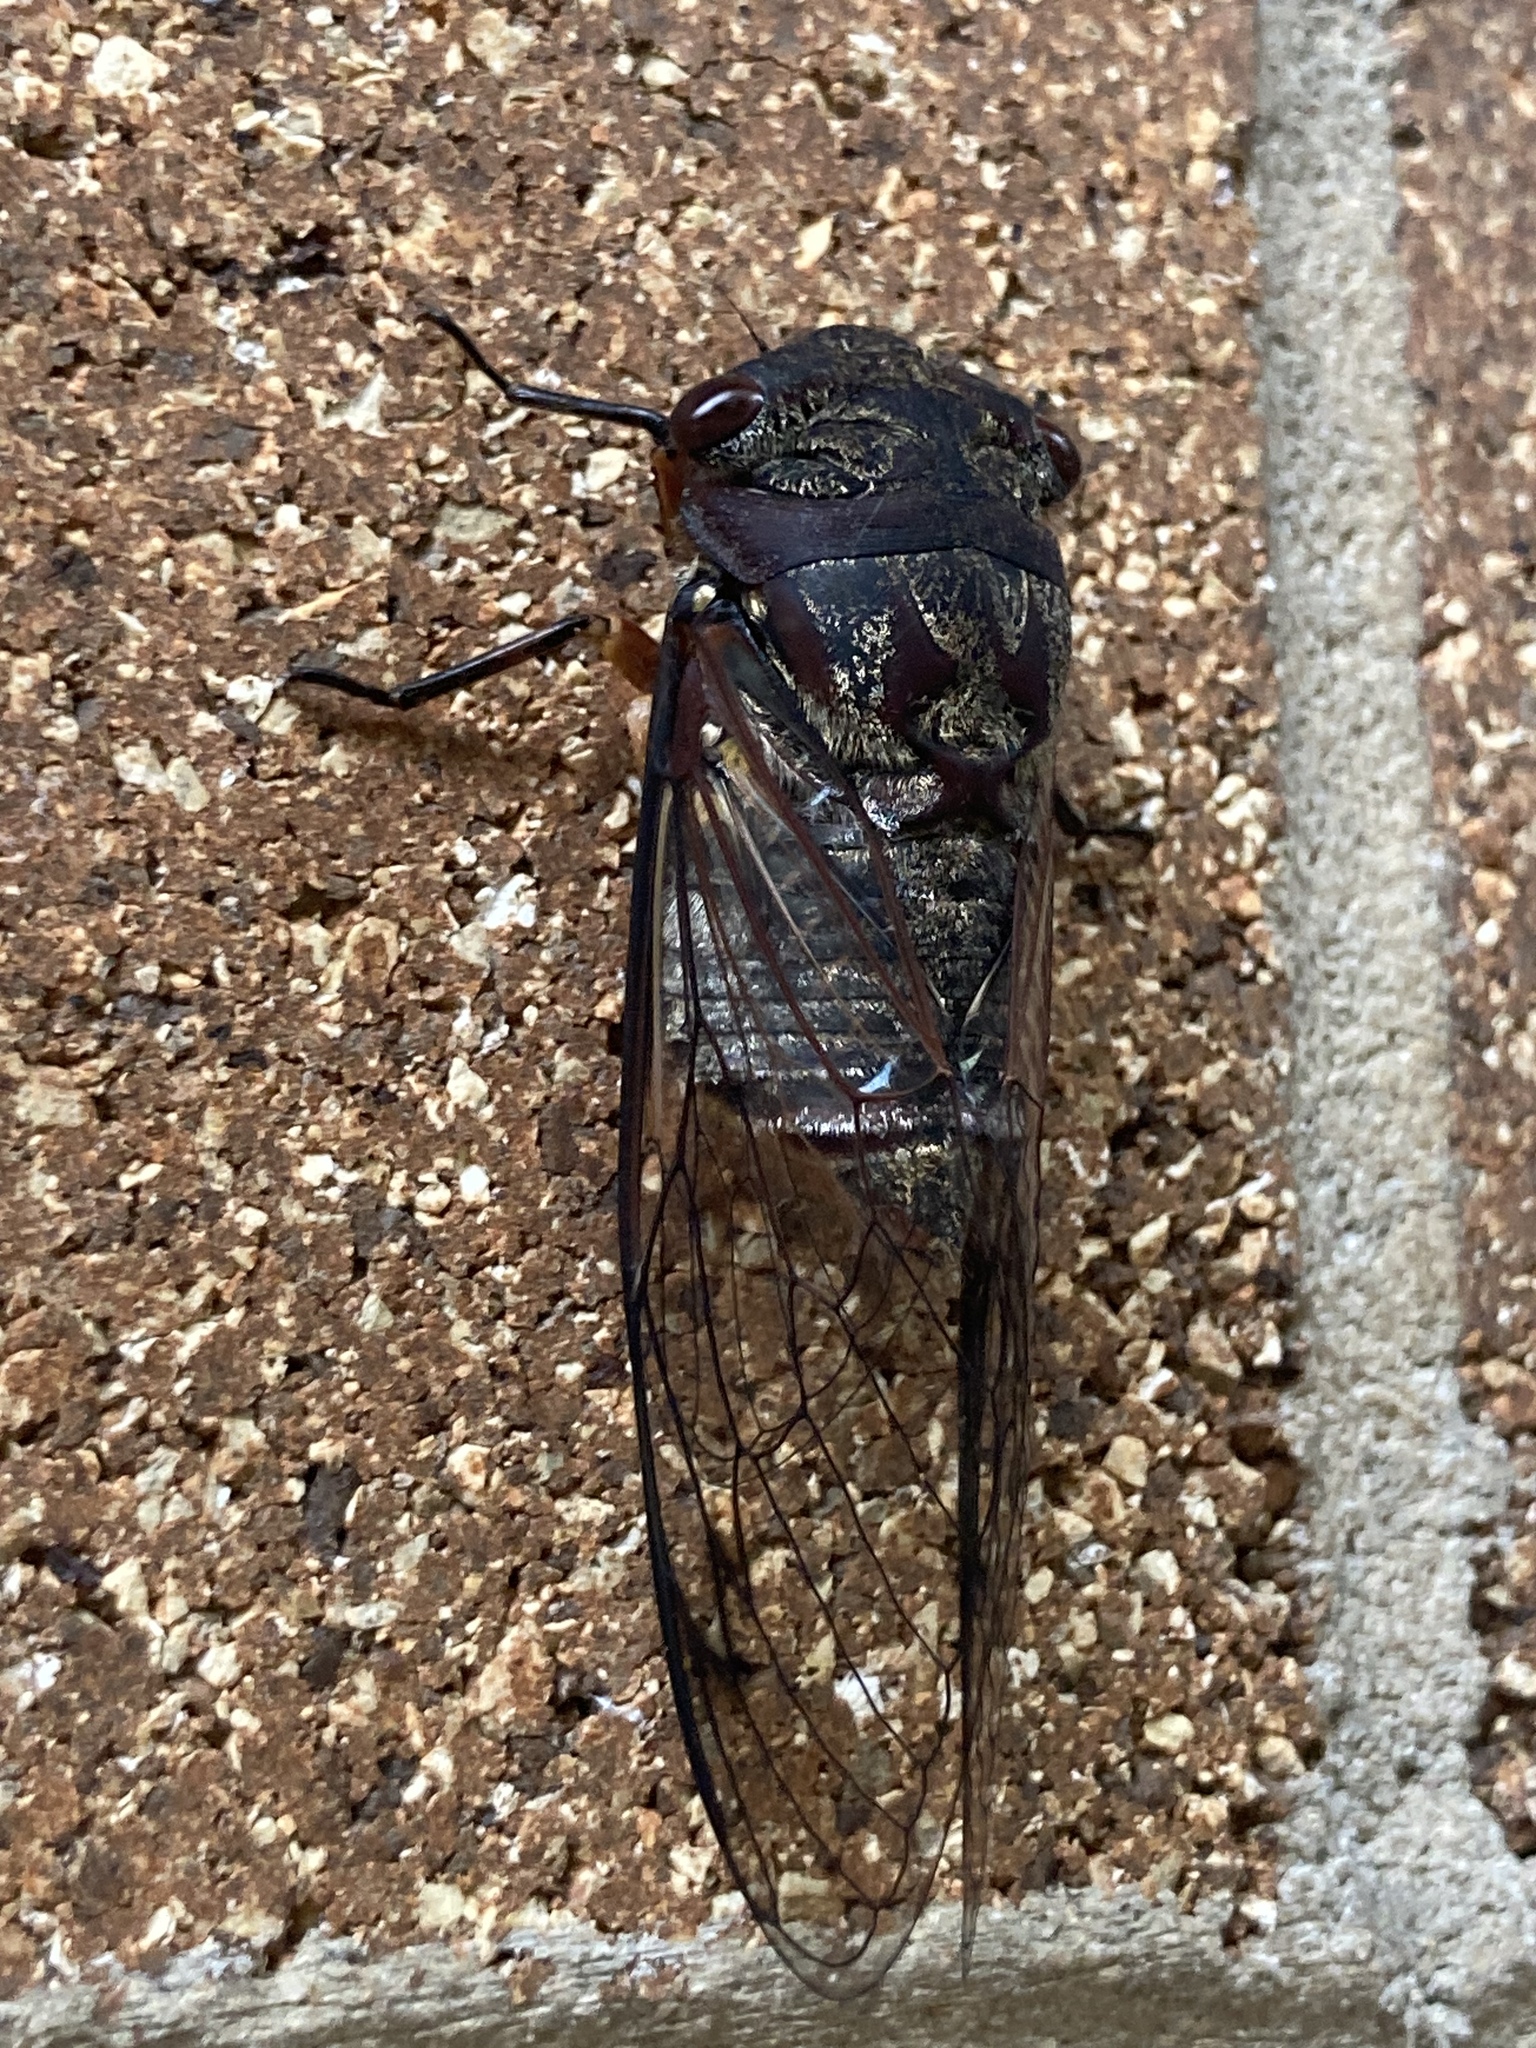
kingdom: Animalia
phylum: Arthropoda
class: Insecta
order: Hemiptera
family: Cicadidae
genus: Psaltoda
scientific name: Psaltoda plaga
